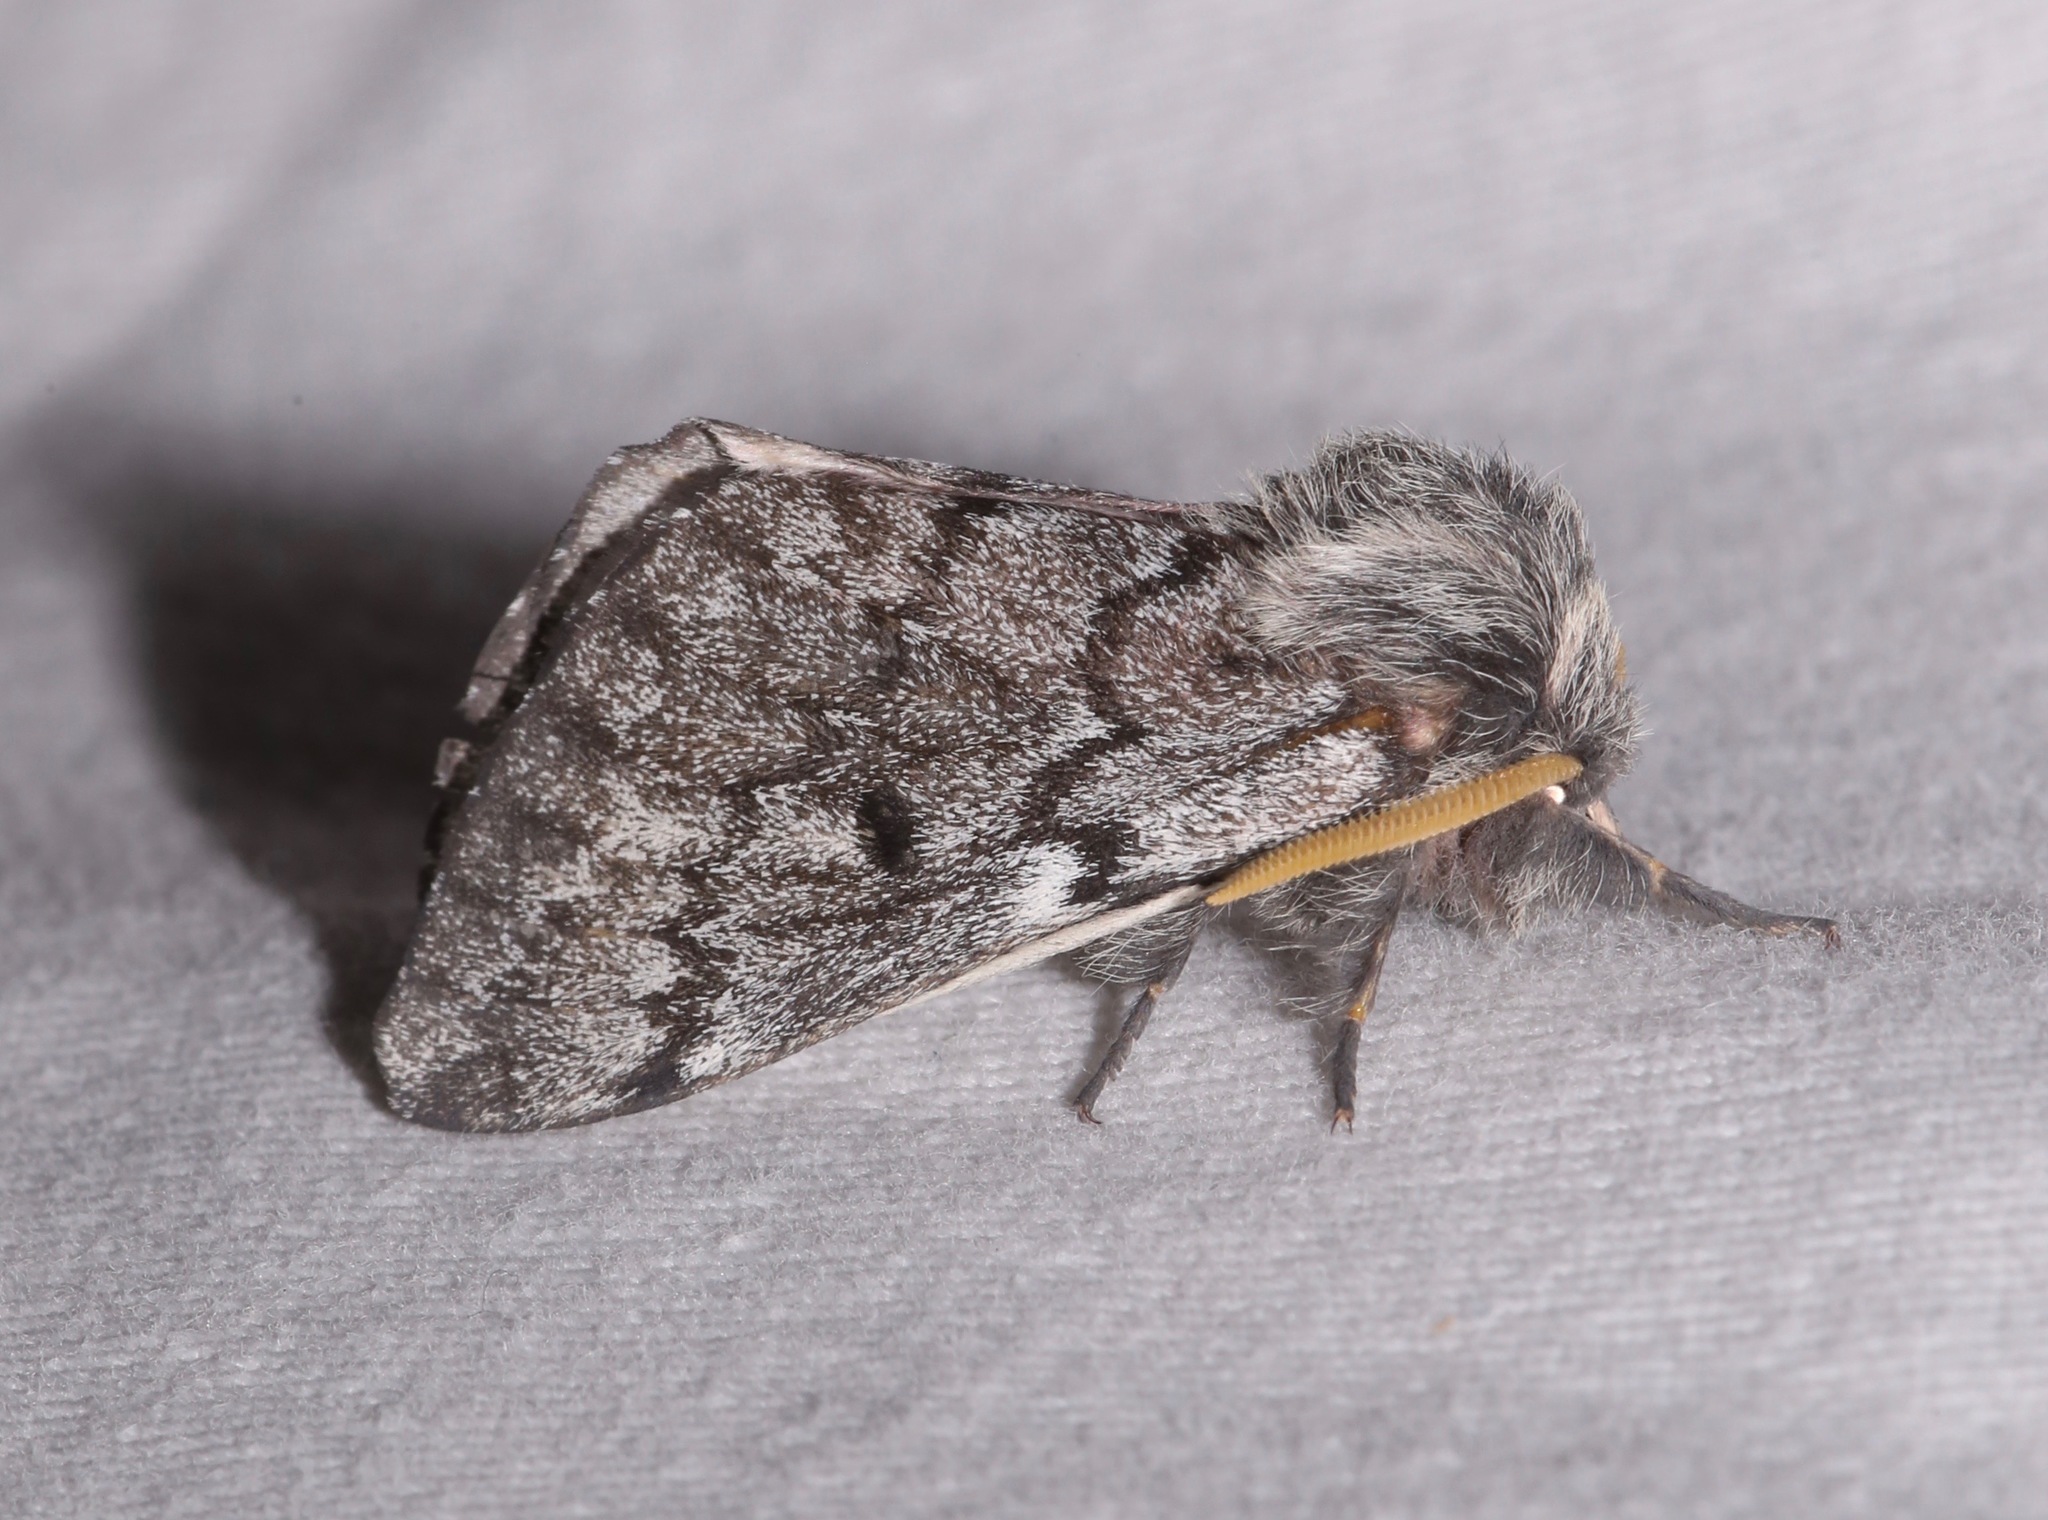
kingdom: Animalia
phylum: Arthropoda
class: Insecta
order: Lepidoptera
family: Saturniidae
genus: Coloradia
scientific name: Coloradia doris
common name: Doris' pinemoth
